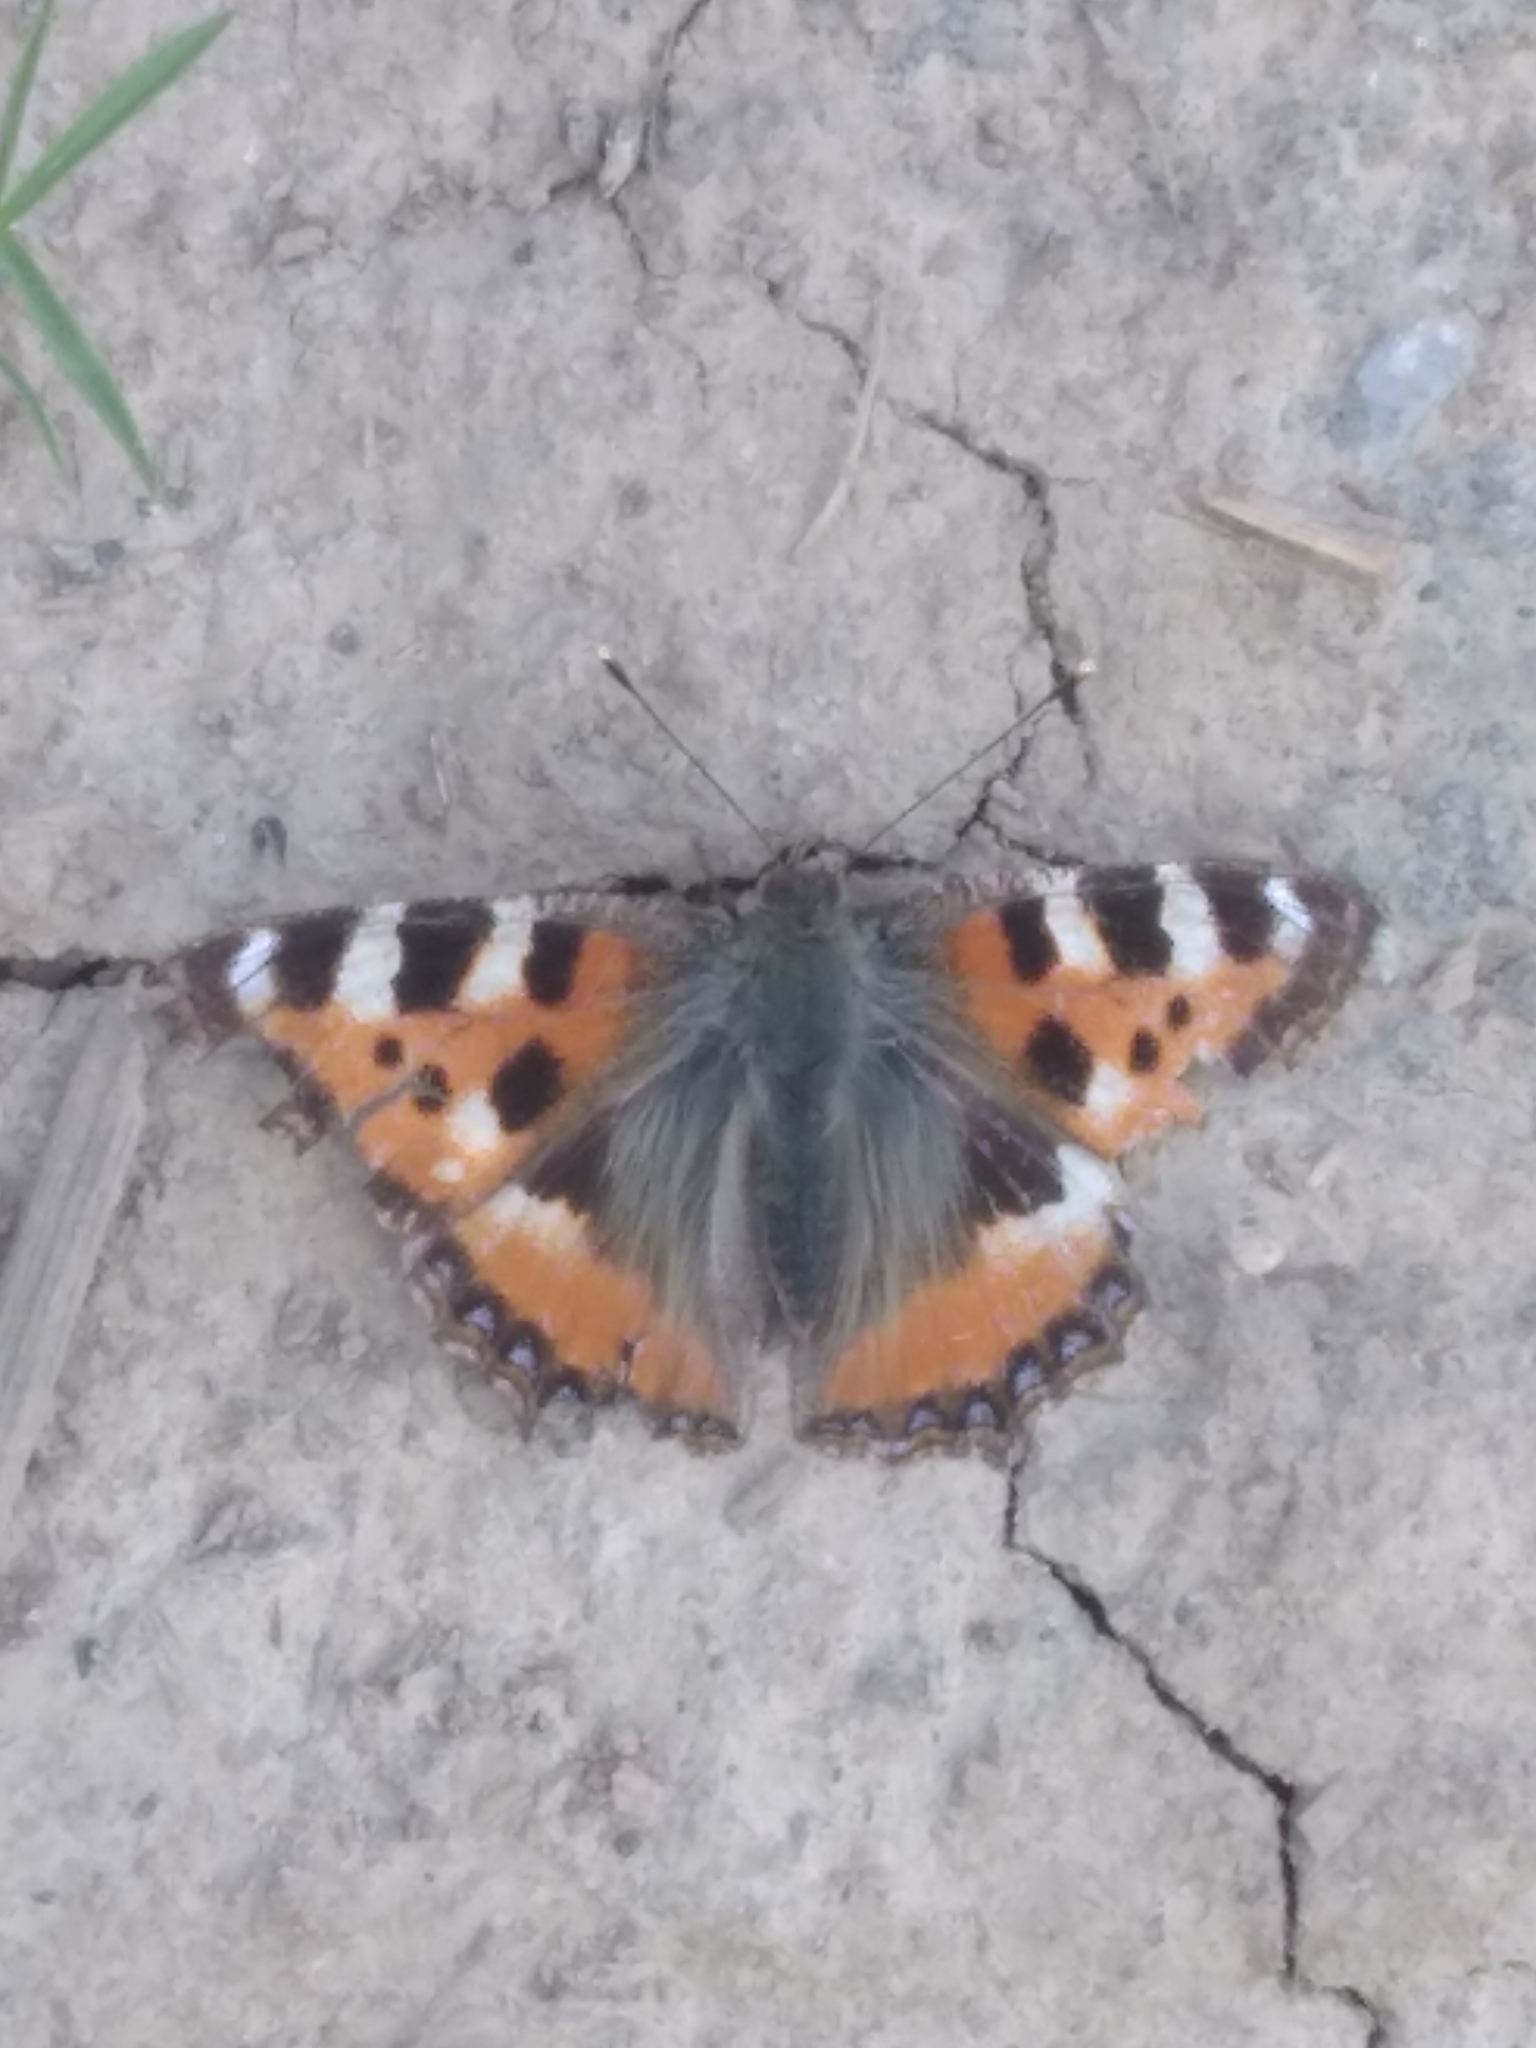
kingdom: Animalia
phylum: Arthropoda
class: Insecta
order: Lepidoptera
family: Nymphalidae
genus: Aglais
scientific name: Aglais urticae
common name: Small tortoiseshell
